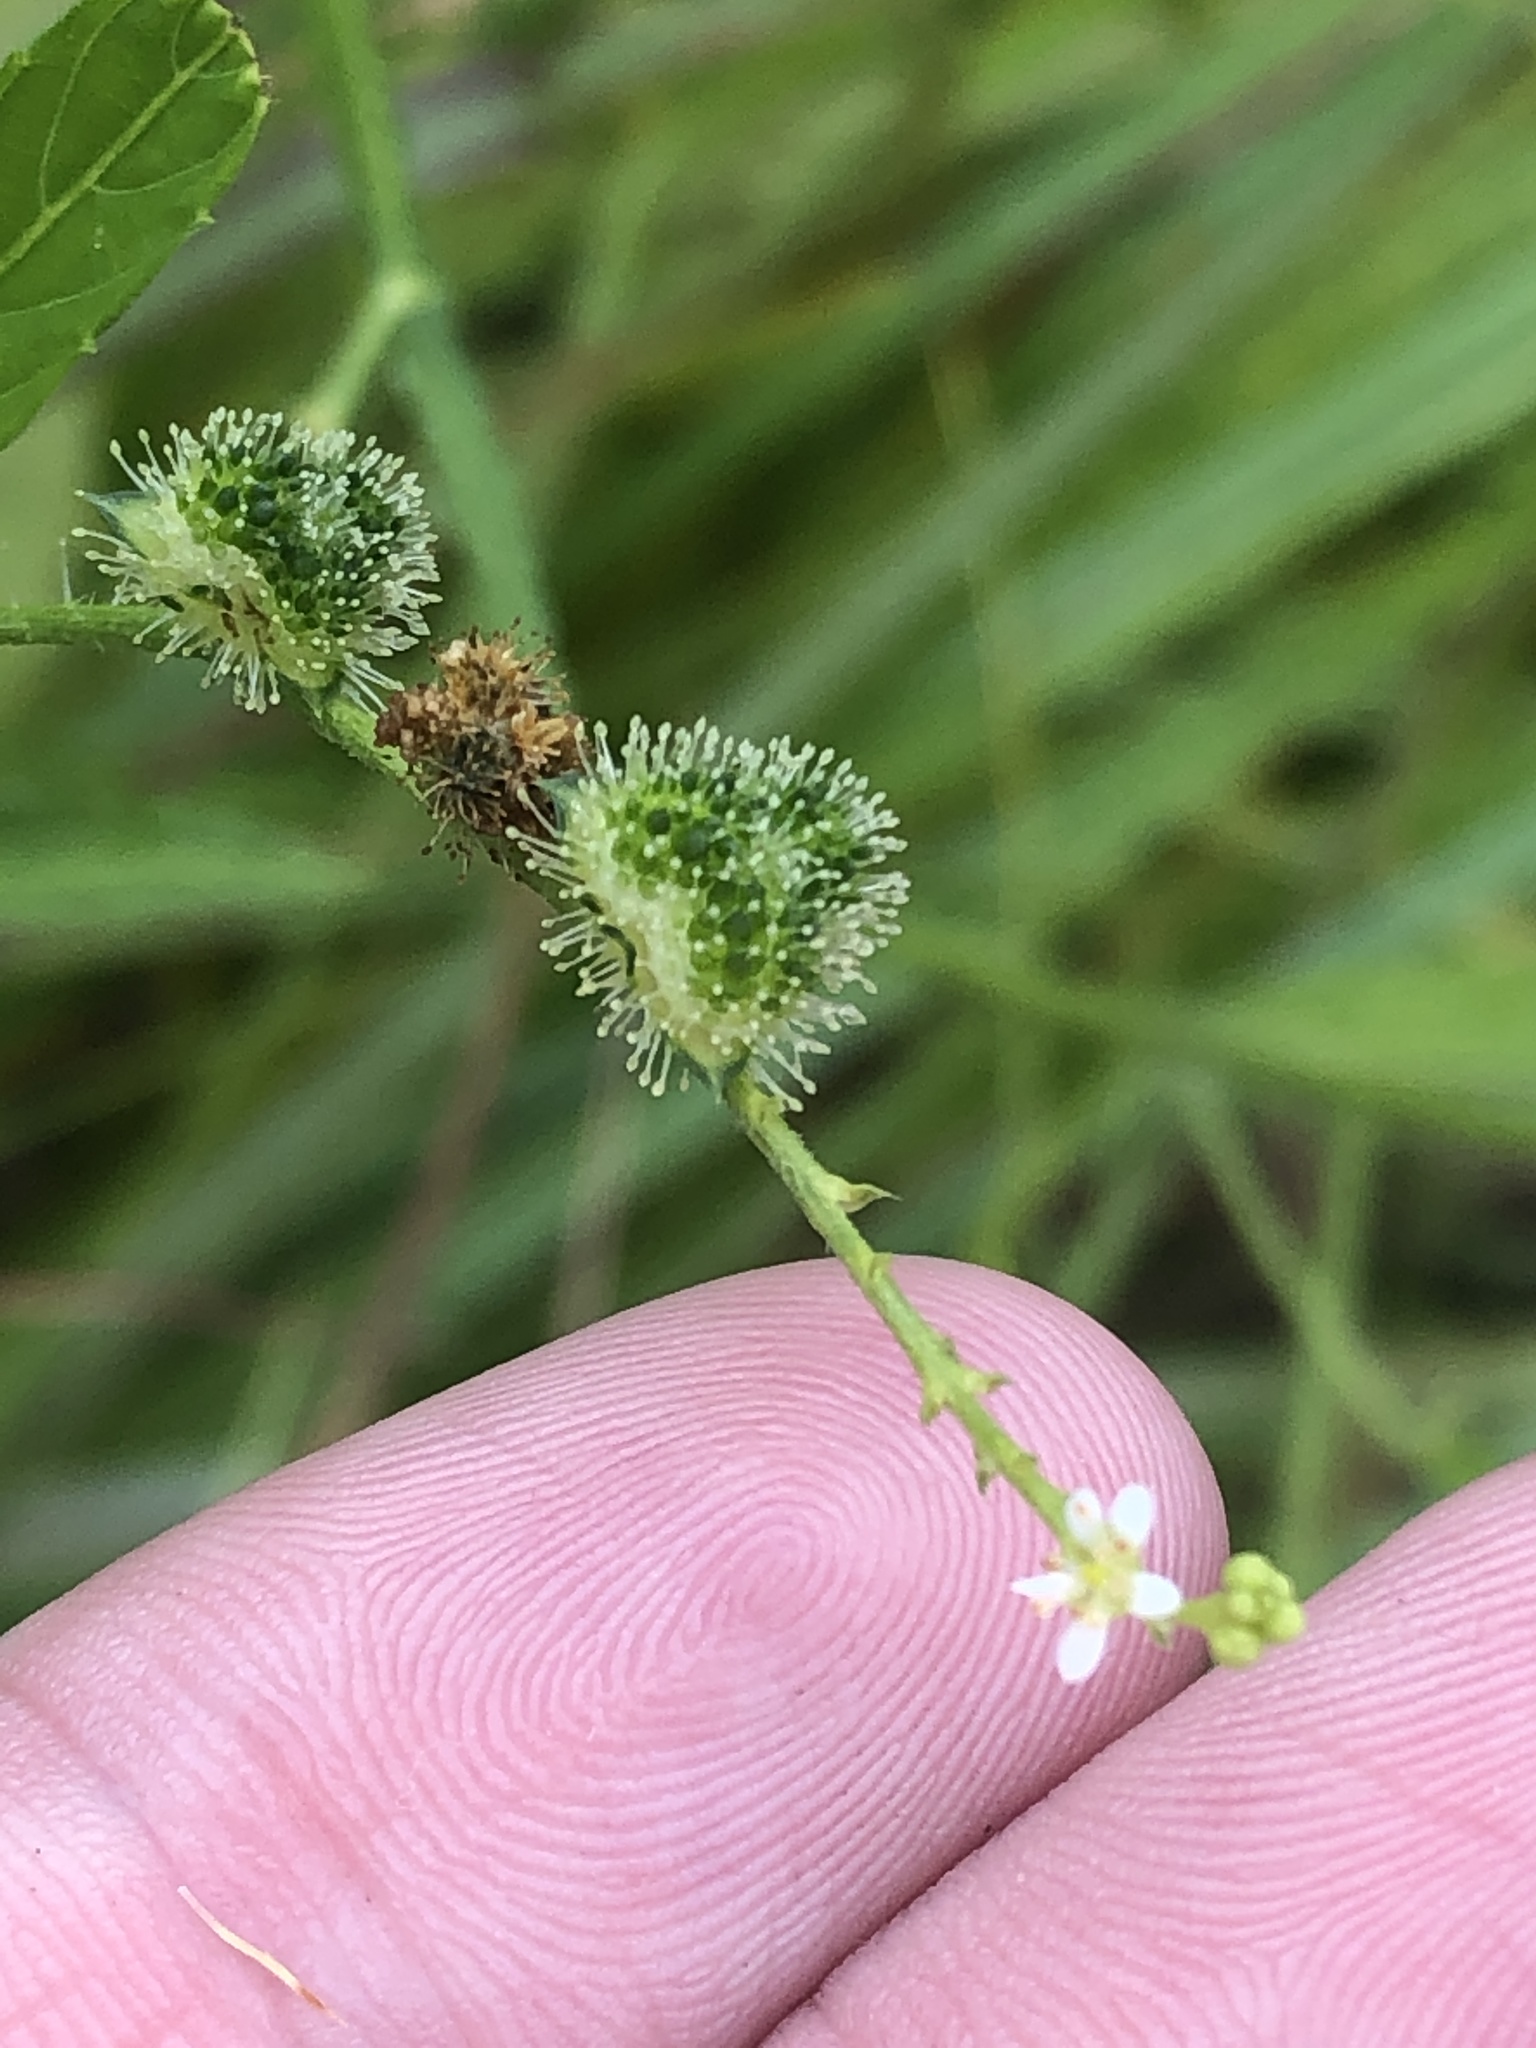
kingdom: Plantae
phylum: Tracheophyta
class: Magnoliopsida
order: Malpighiales
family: Euphorbiaceae
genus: Caperonia
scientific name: Caperonia palustris
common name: Sacatrapo
